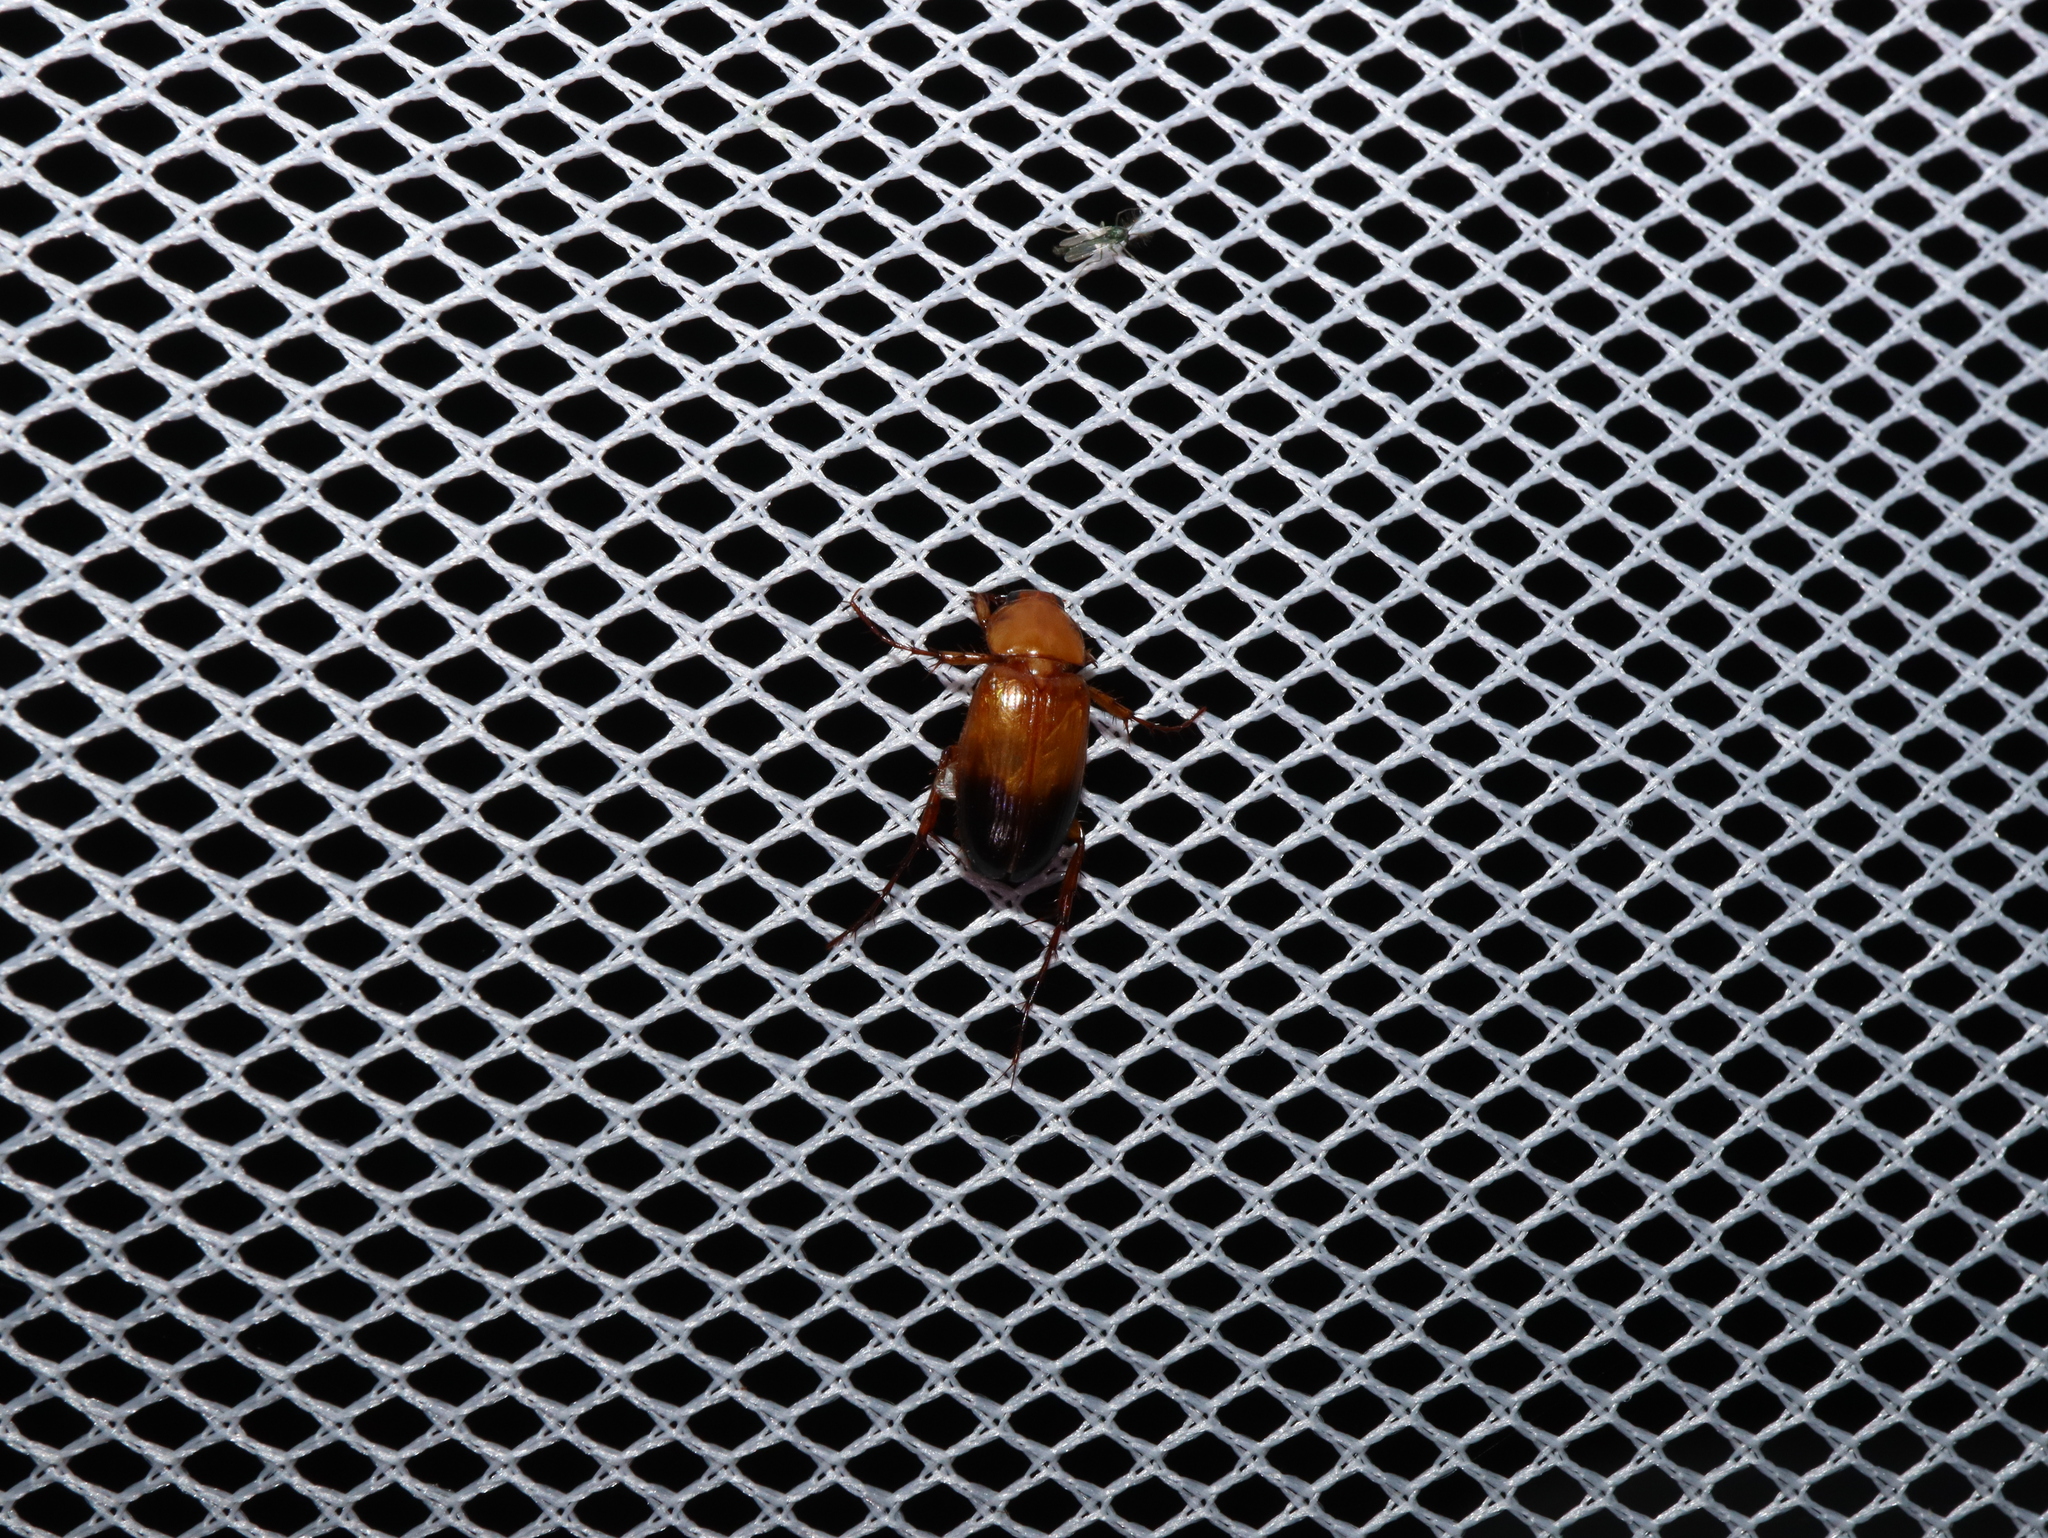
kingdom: Animalia
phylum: Arthropoda
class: Insecta
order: Coleoptera
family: Scarabaeidae
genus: Phyllotocus
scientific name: Phyllotocus macleayi
